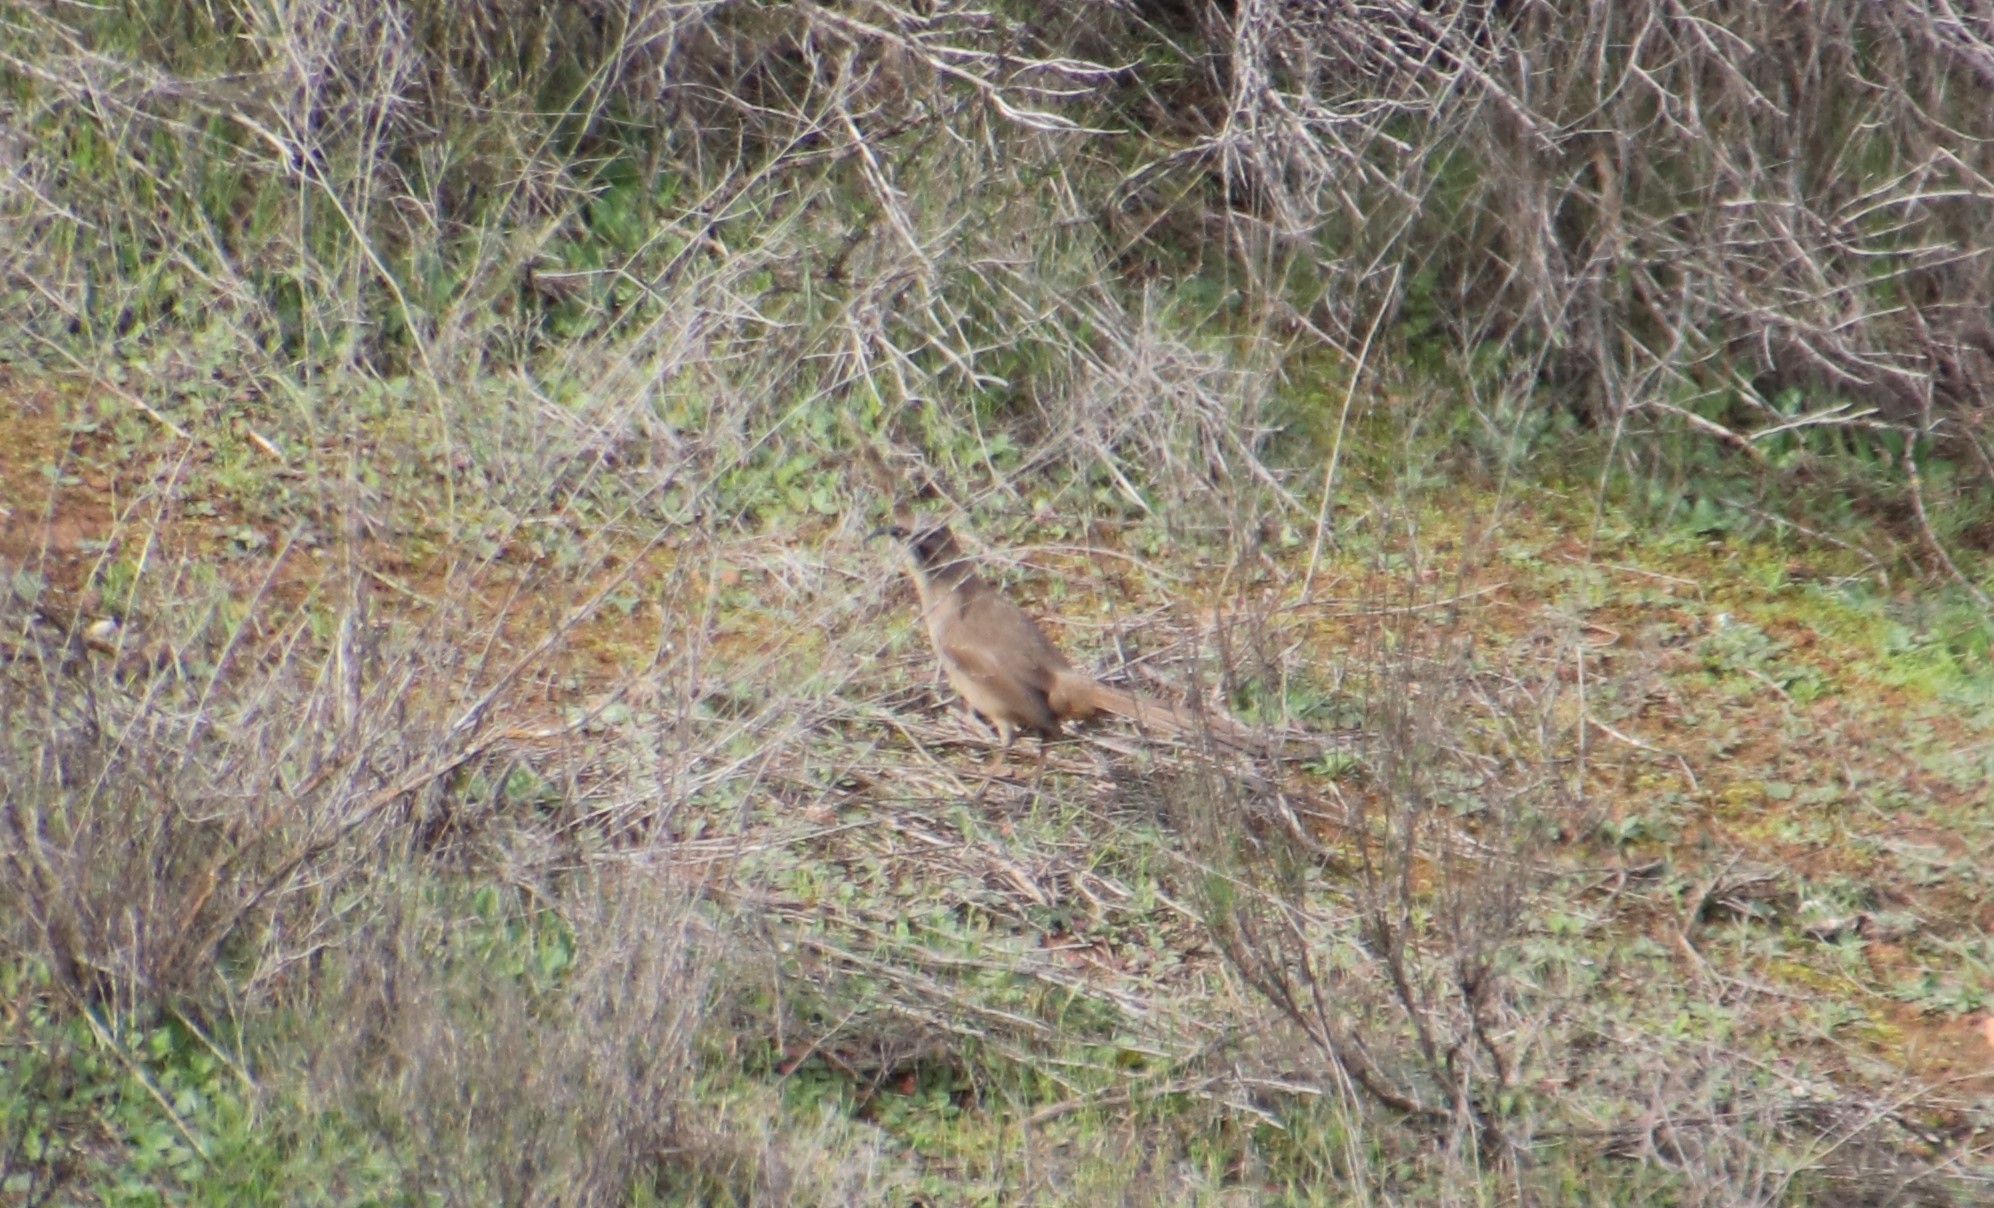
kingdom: Animalia
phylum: Chordata
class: Aves
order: Passeriformes
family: Mimidae
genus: Toxostoma
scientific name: Toxostoma redivivum
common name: California thrasher
